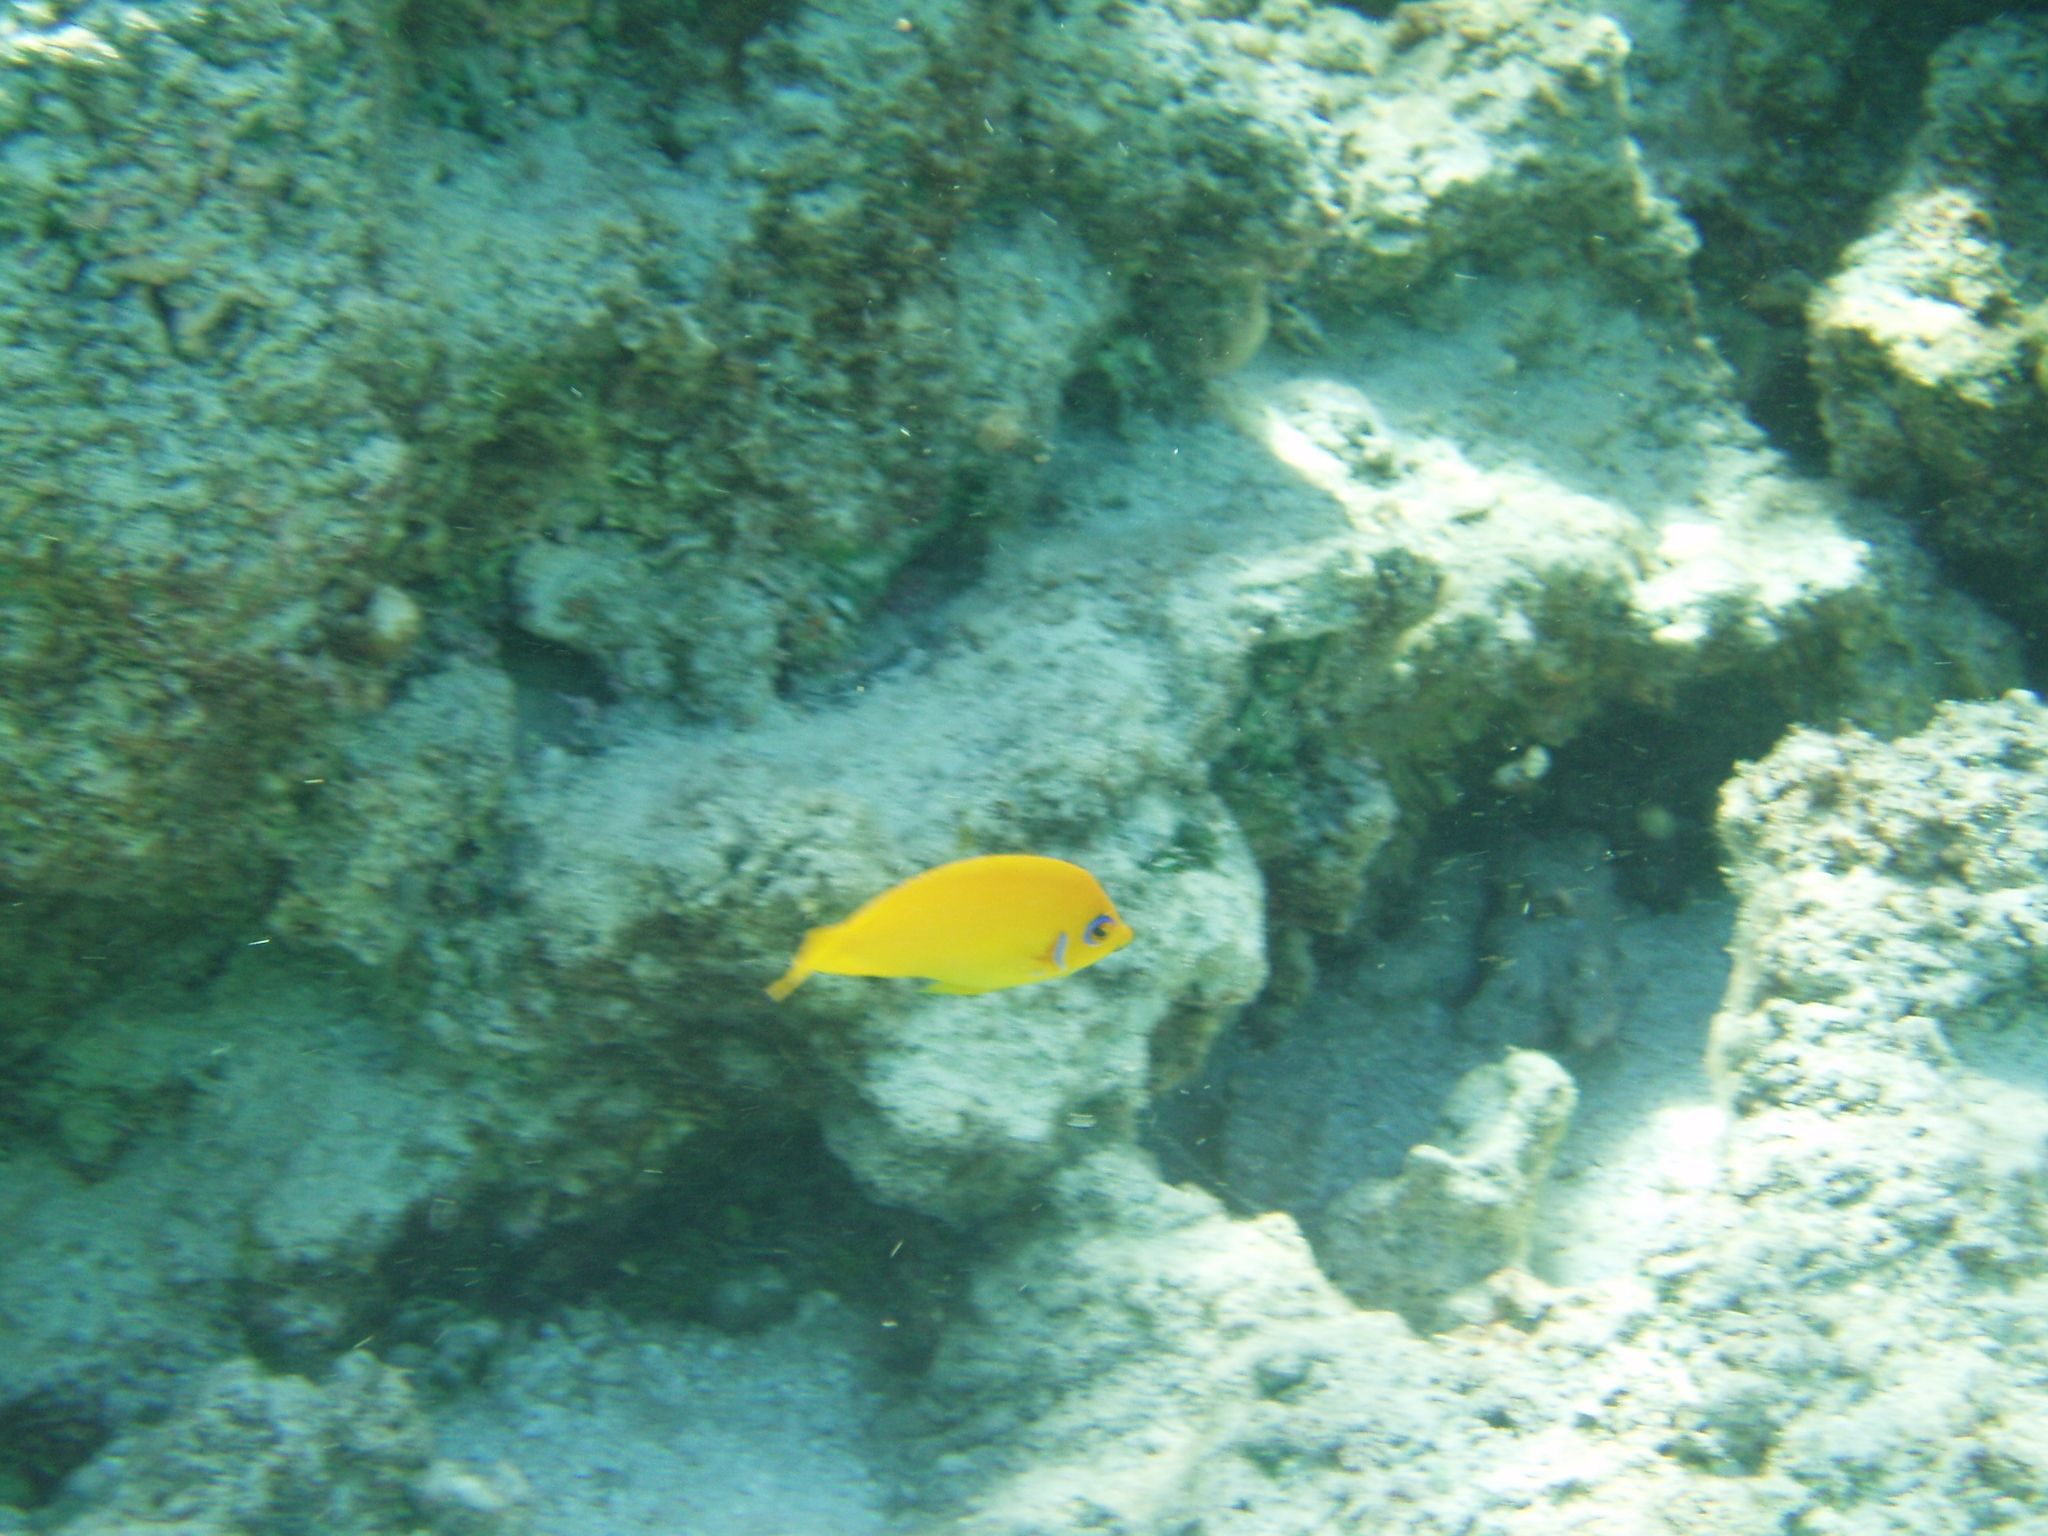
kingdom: Animalia
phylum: Chordata
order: Perciformes
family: Pomacanthidae
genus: Centropyge
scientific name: Centropyge flavissima
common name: Lemonpeel angelfish
